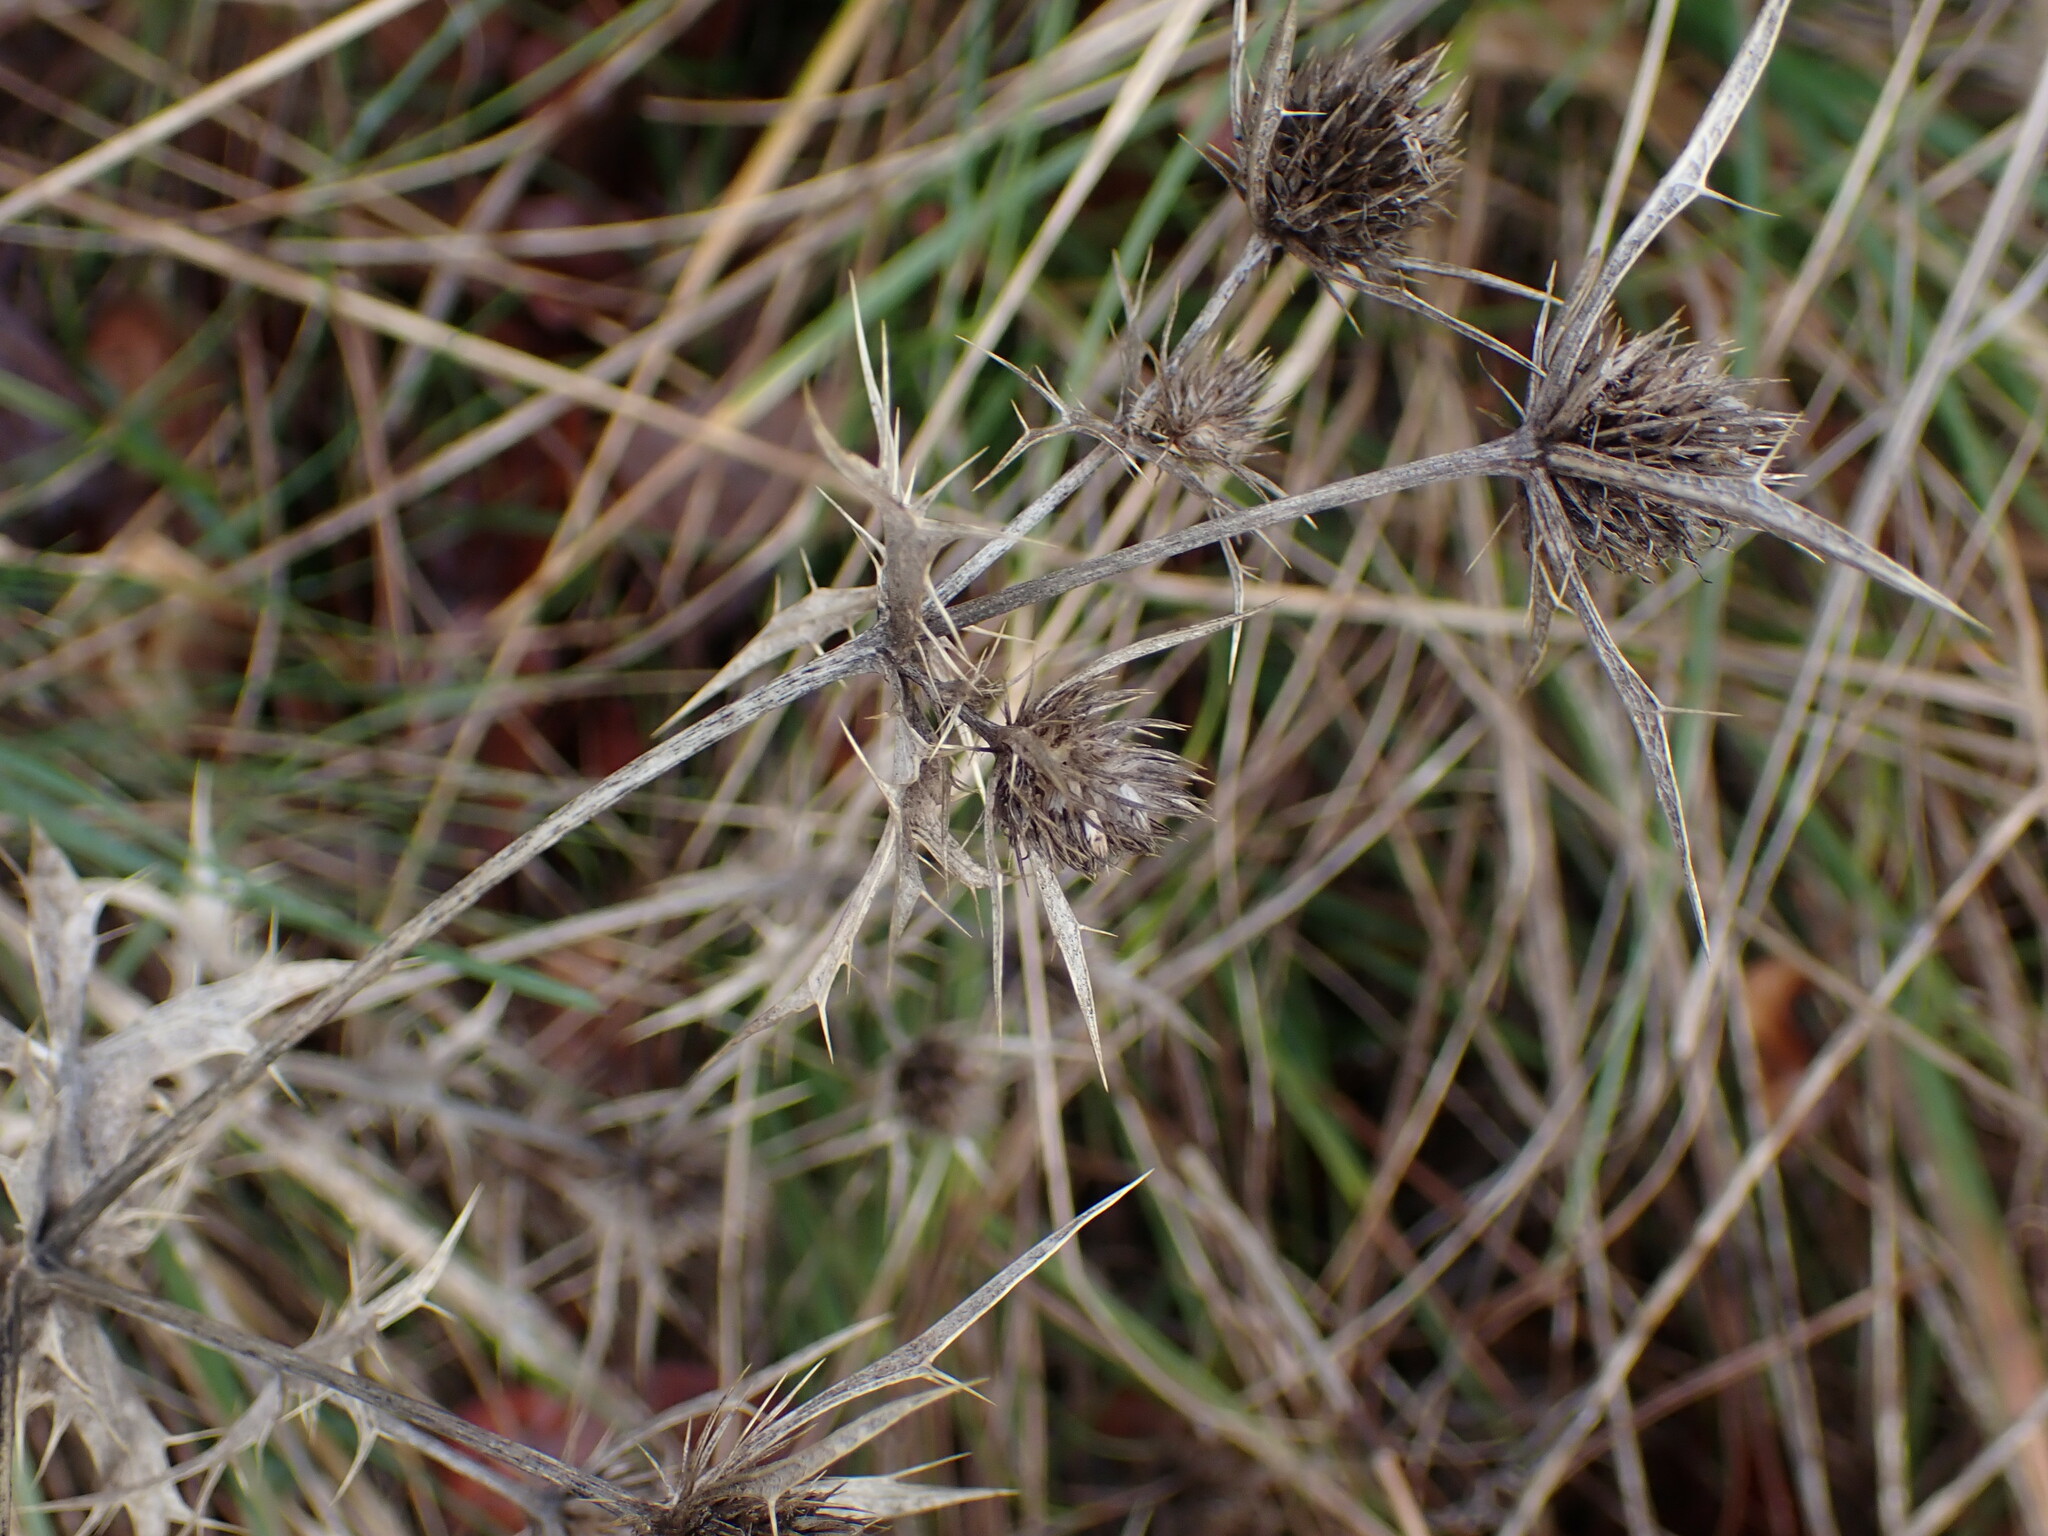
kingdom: Plantae
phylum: Tracheophyta
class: Magnoliopsida
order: Apiales
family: Apiaceae
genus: Eryngium
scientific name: Eryngium campestre
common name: Field eryngo
